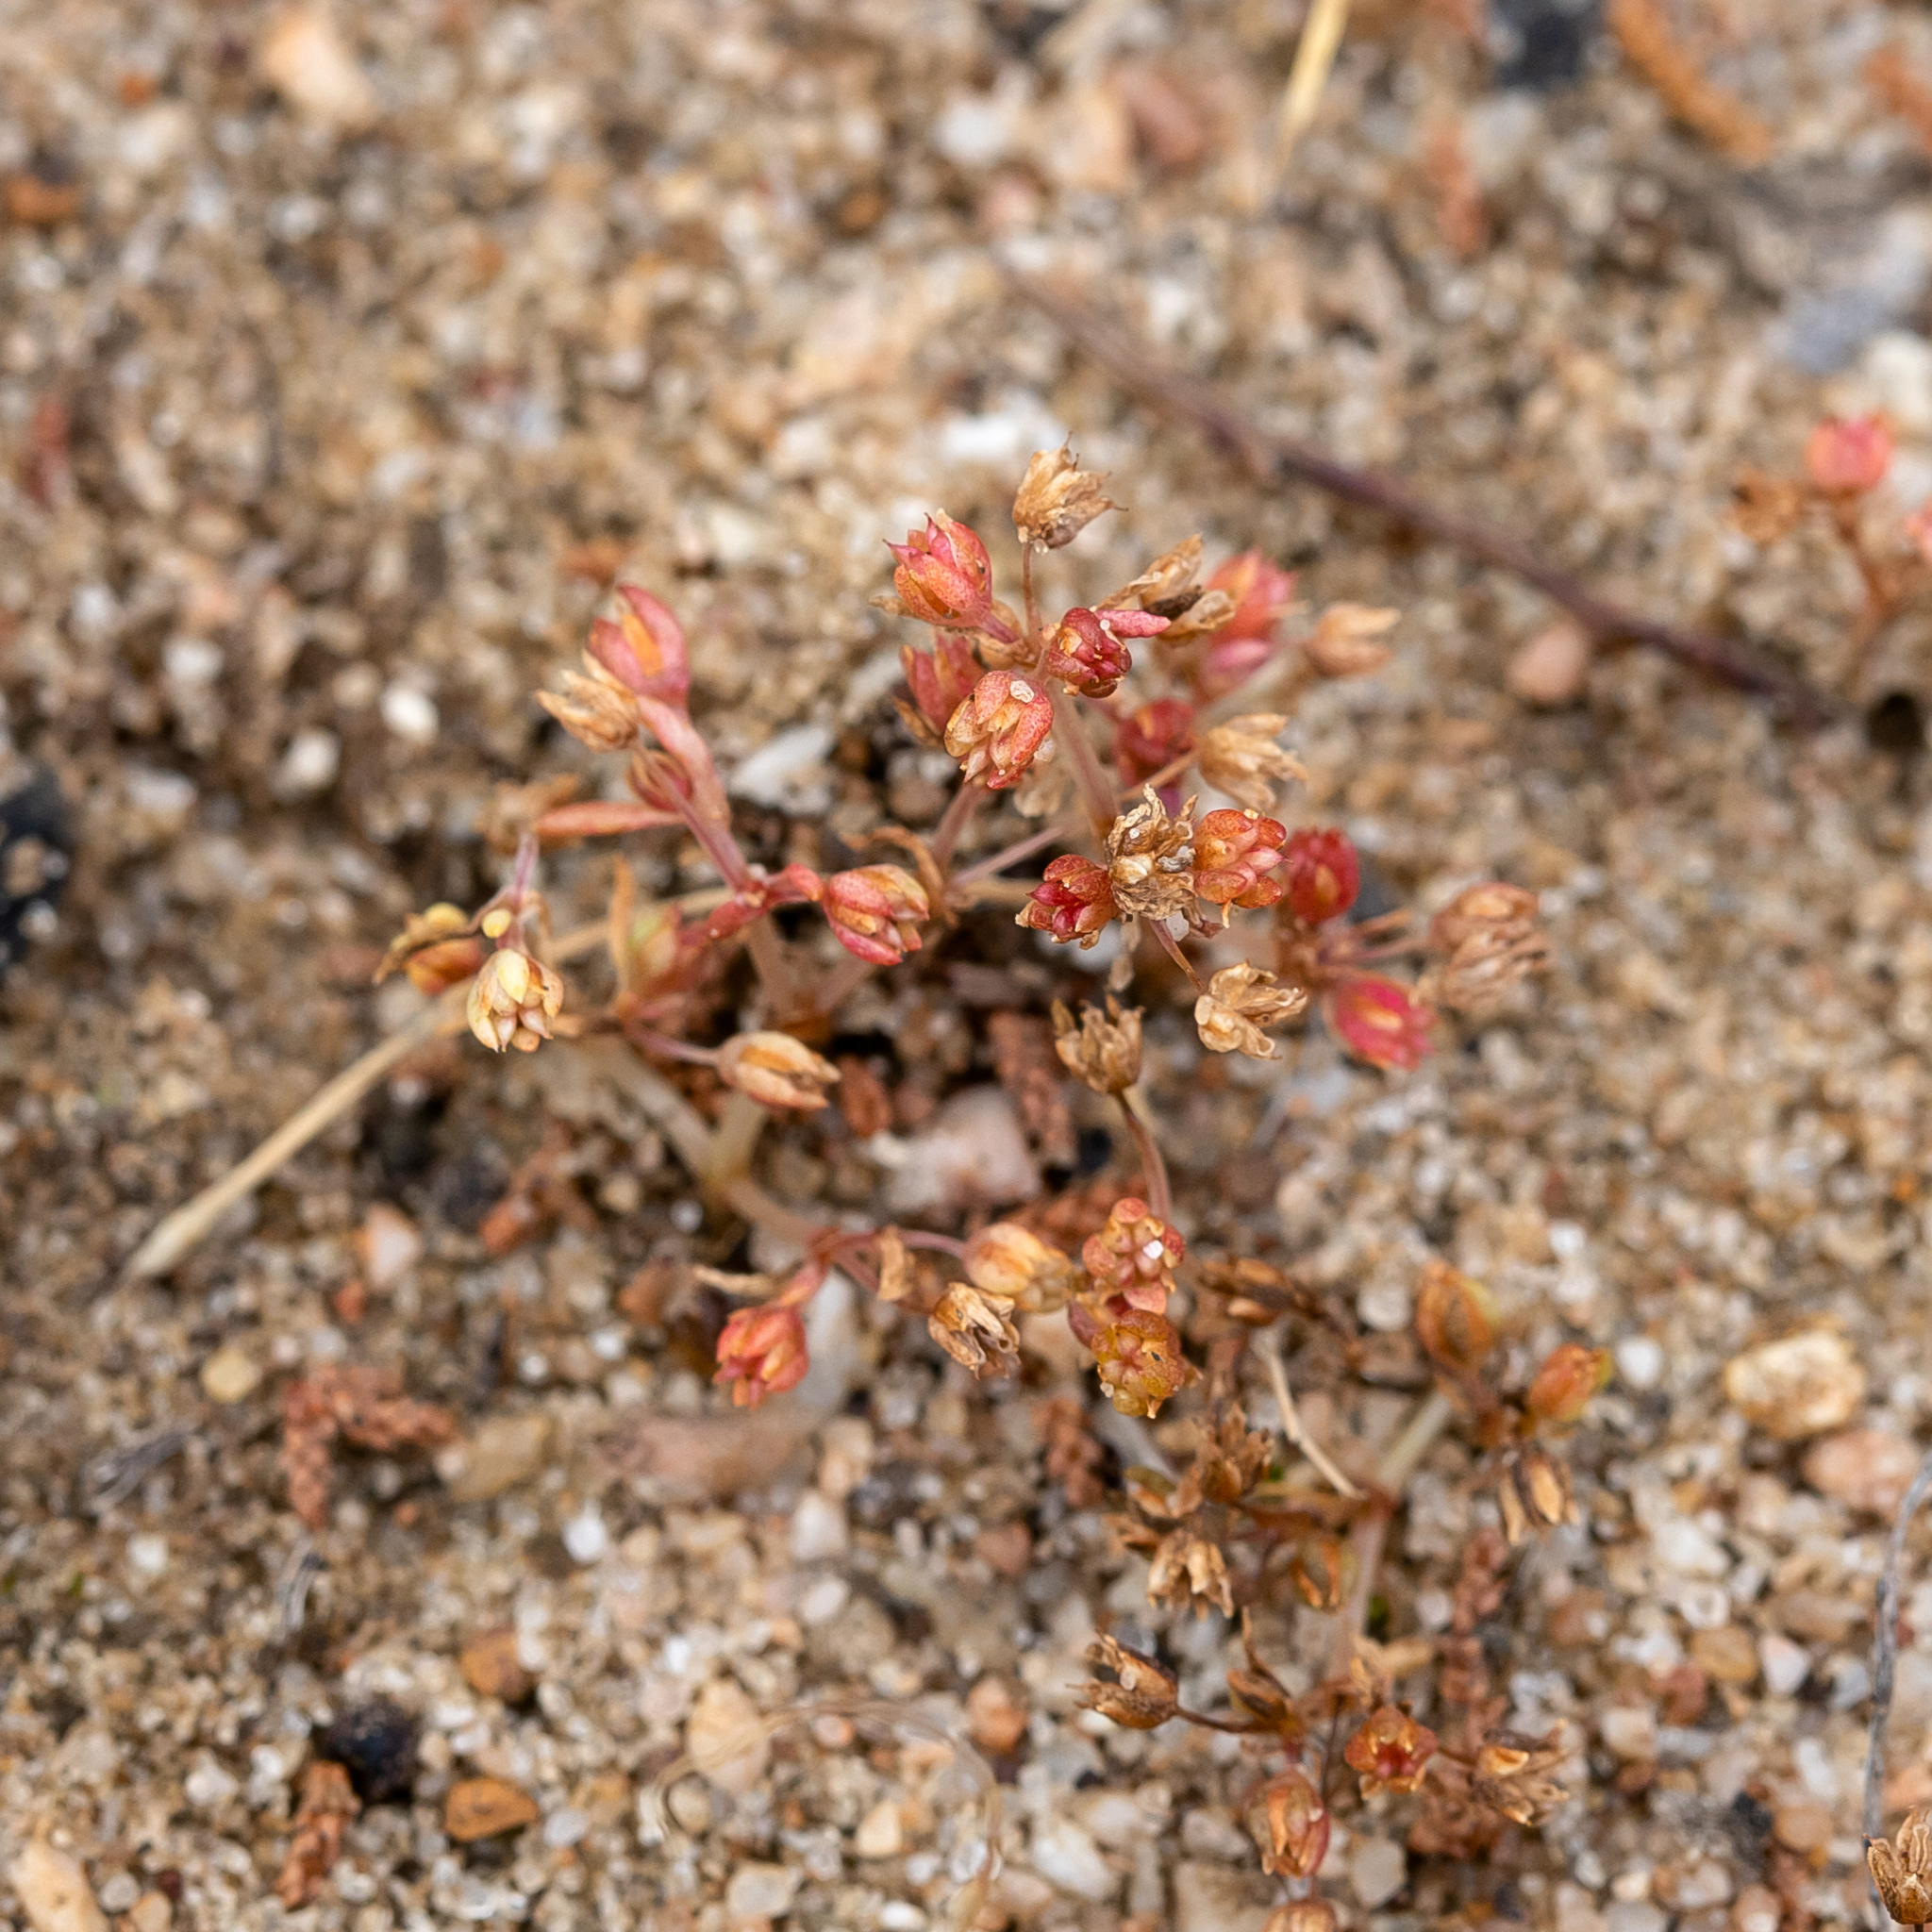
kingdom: Plantae
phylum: Tracheophyta
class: Magnoliopsida
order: Saxifragales
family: Crassulaceae
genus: Crassula
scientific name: Crassula decumbens
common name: Scilly pigmyweed
